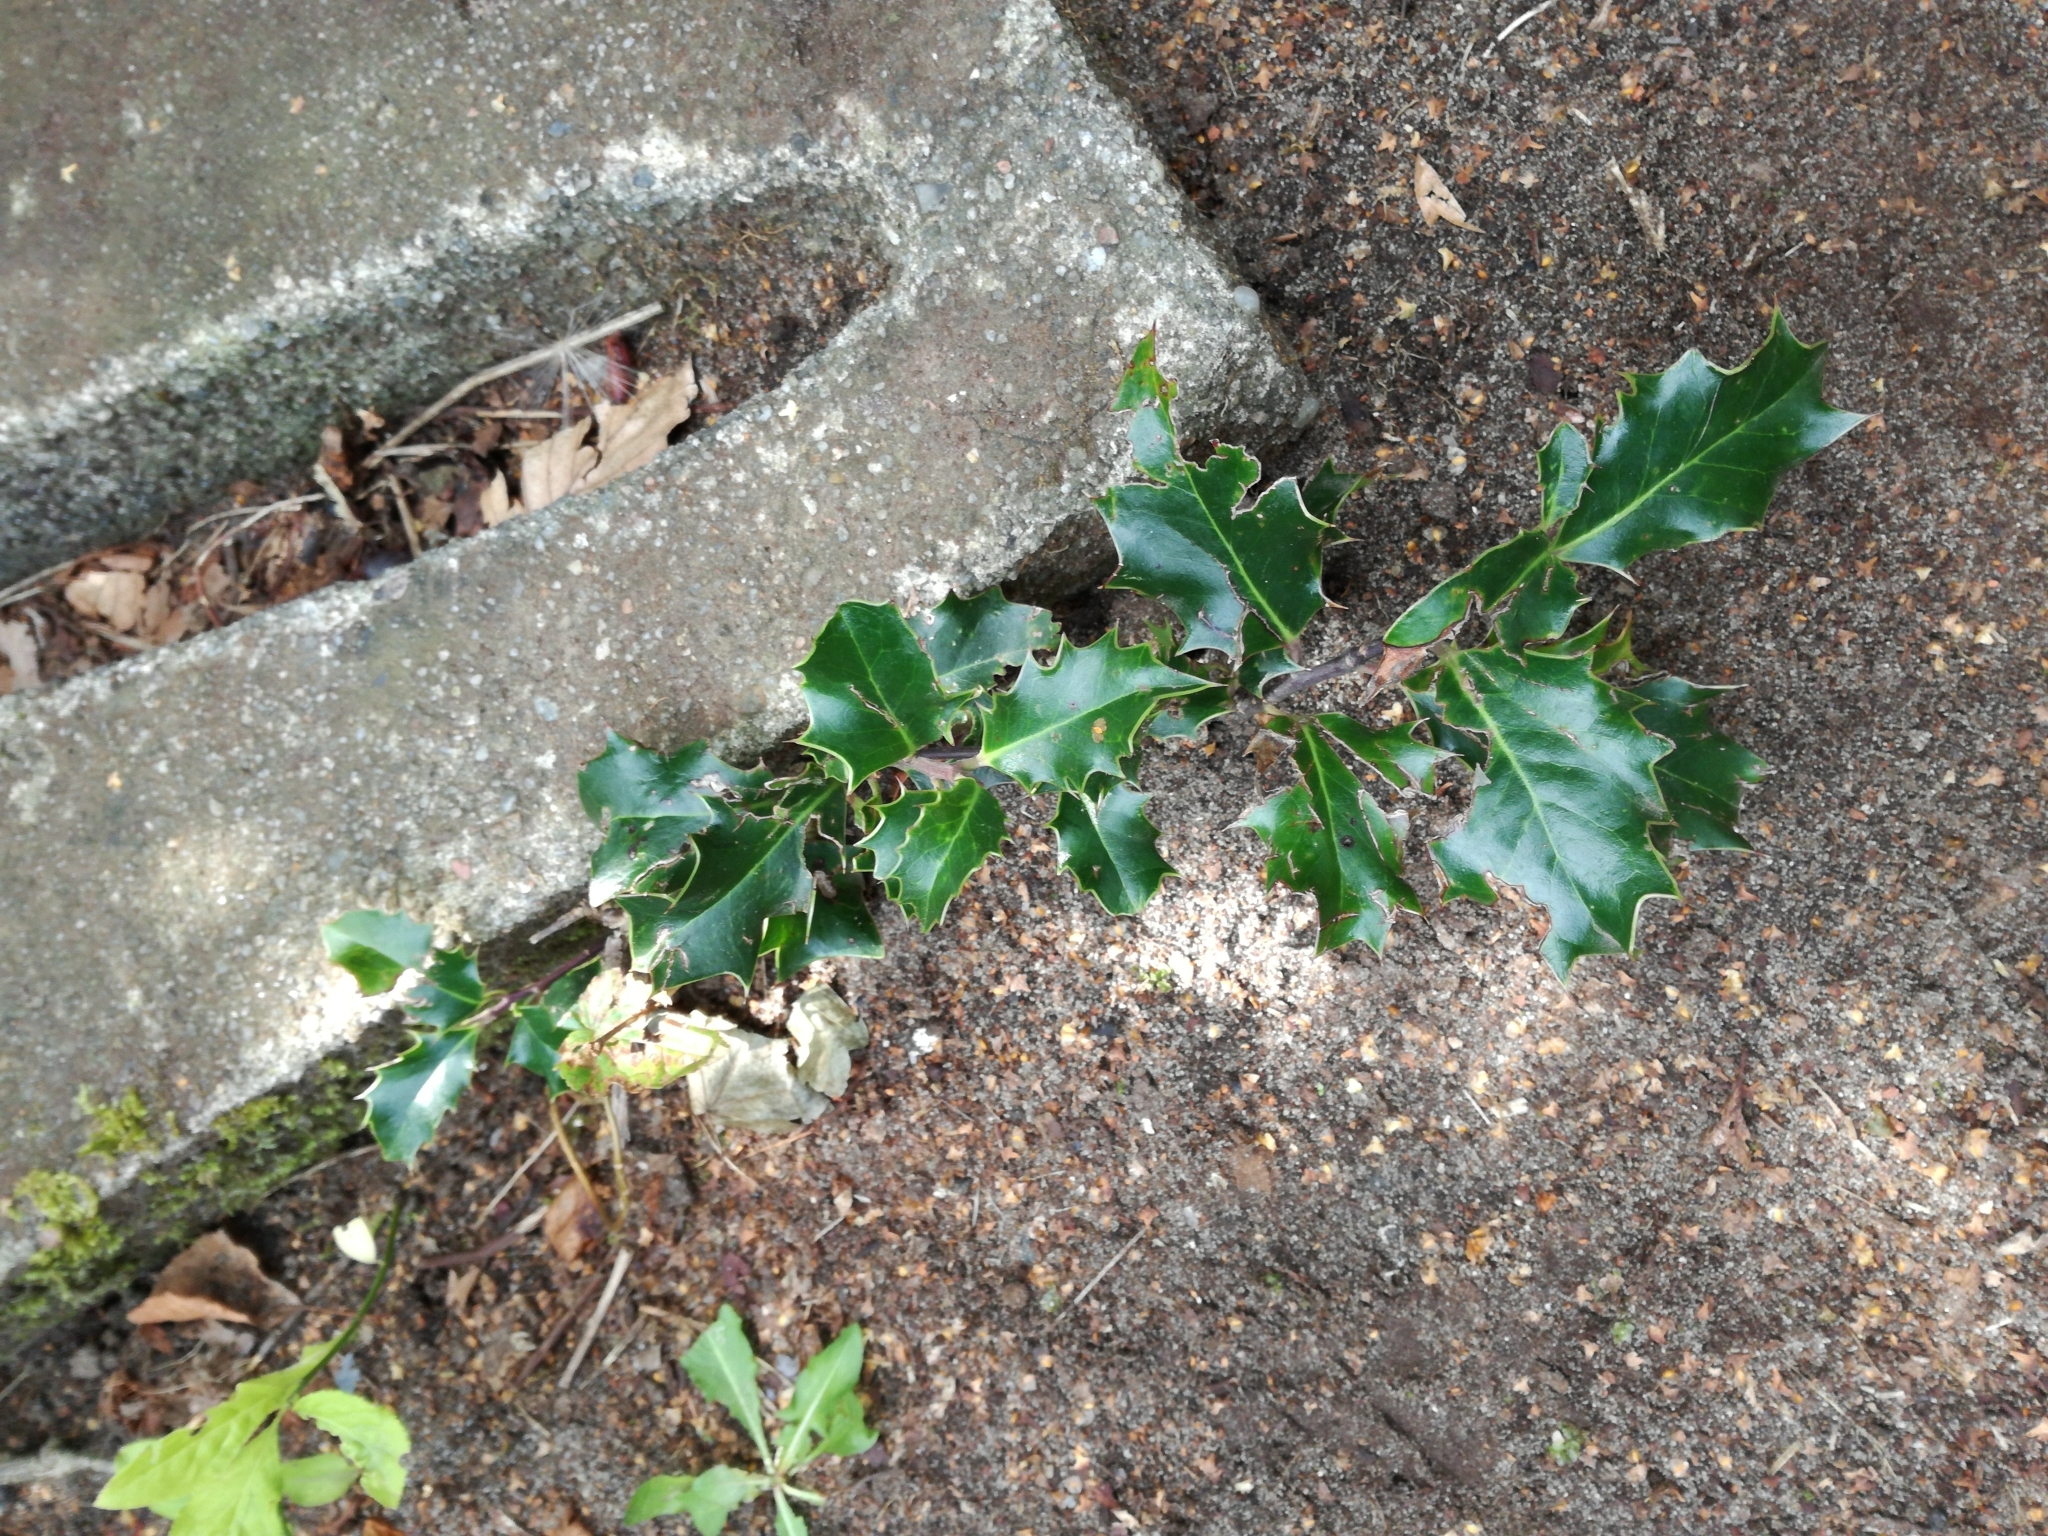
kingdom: Plantae
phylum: Tracheophyta
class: Magnoliopsida
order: Aquifoliales
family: Aquifoliaceae
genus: Ilex
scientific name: Ilex aquifolium
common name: English holly
